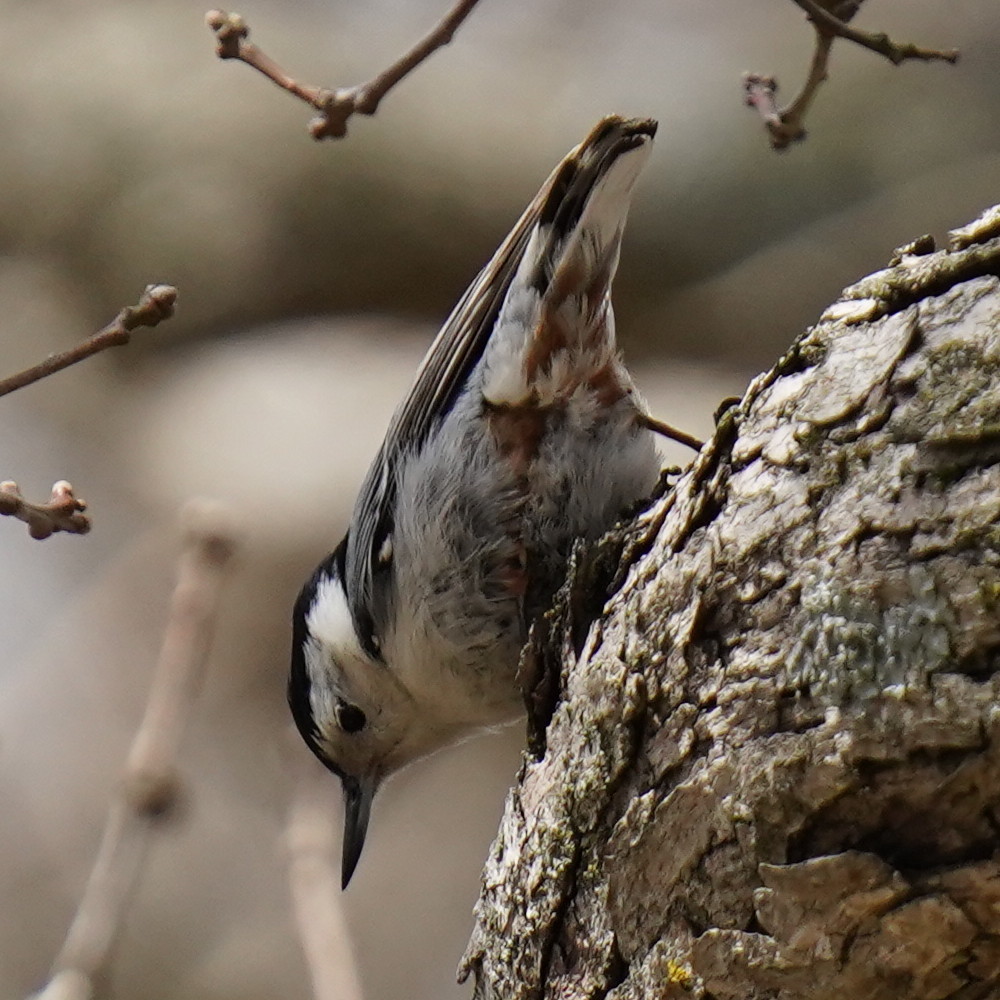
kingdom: Animalia
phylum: Chordata
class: Aves
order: Passeriformes
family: Sittidae
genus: Sitta
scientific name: Sitta carolinensis
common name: White-breasted nuthatch
